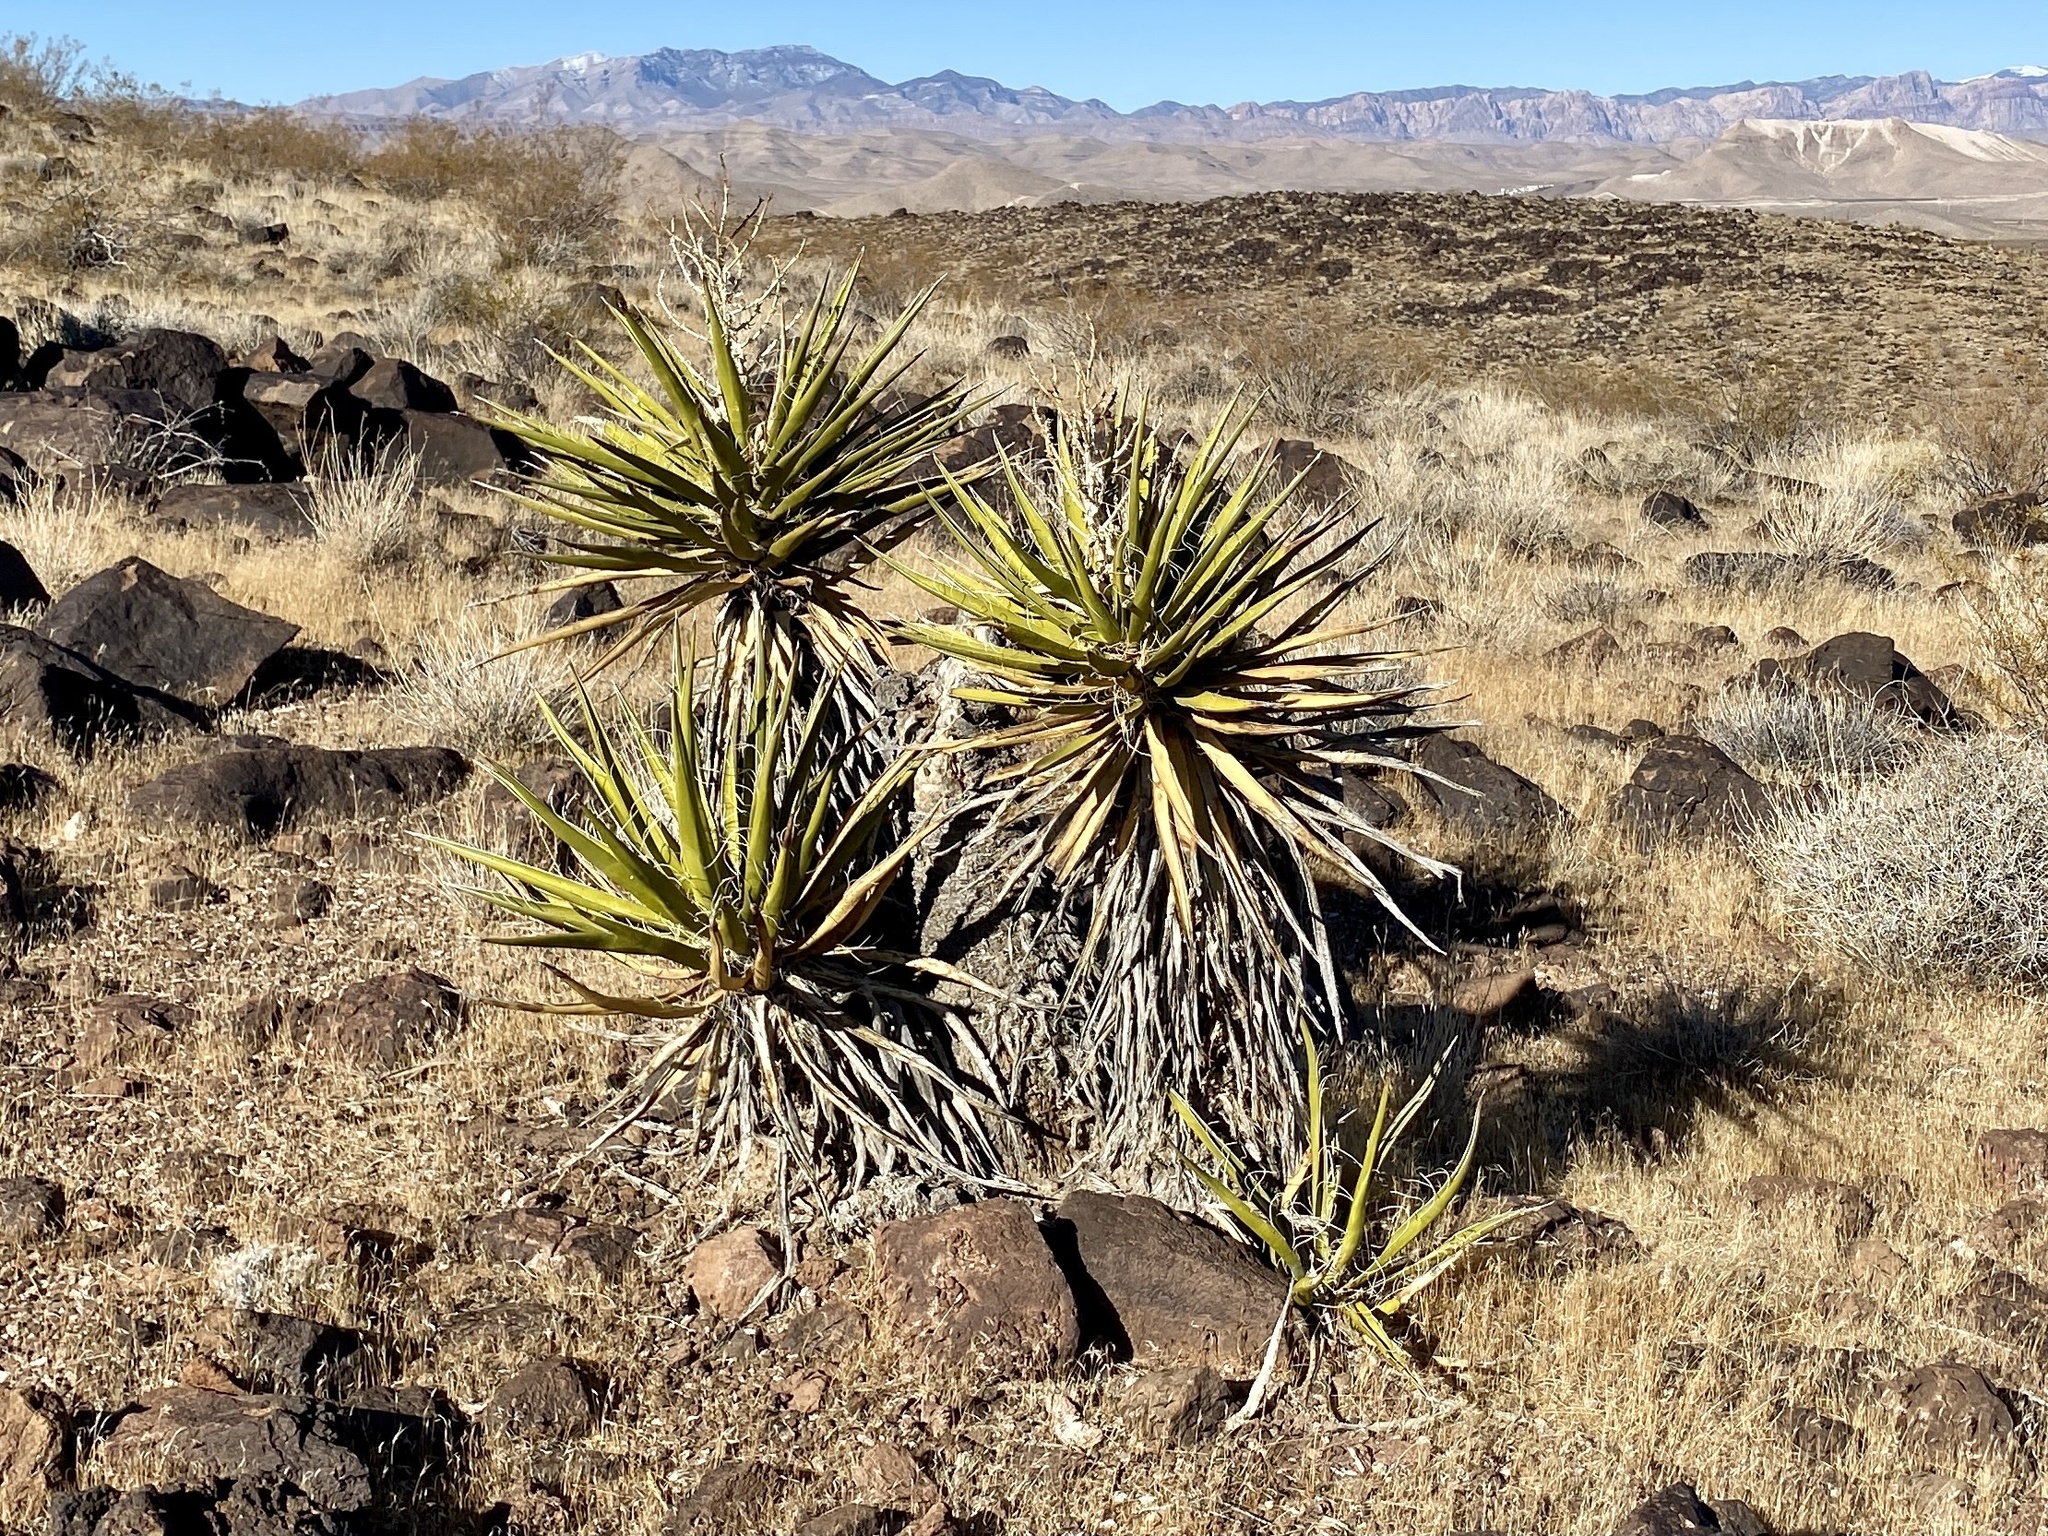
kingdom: Plantae
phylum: Tracheophyta
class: Liliopsida
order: Asparagales
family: Asparagaceae
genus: Yucca
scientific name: Yucca schidigera
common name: Mojave yucca
